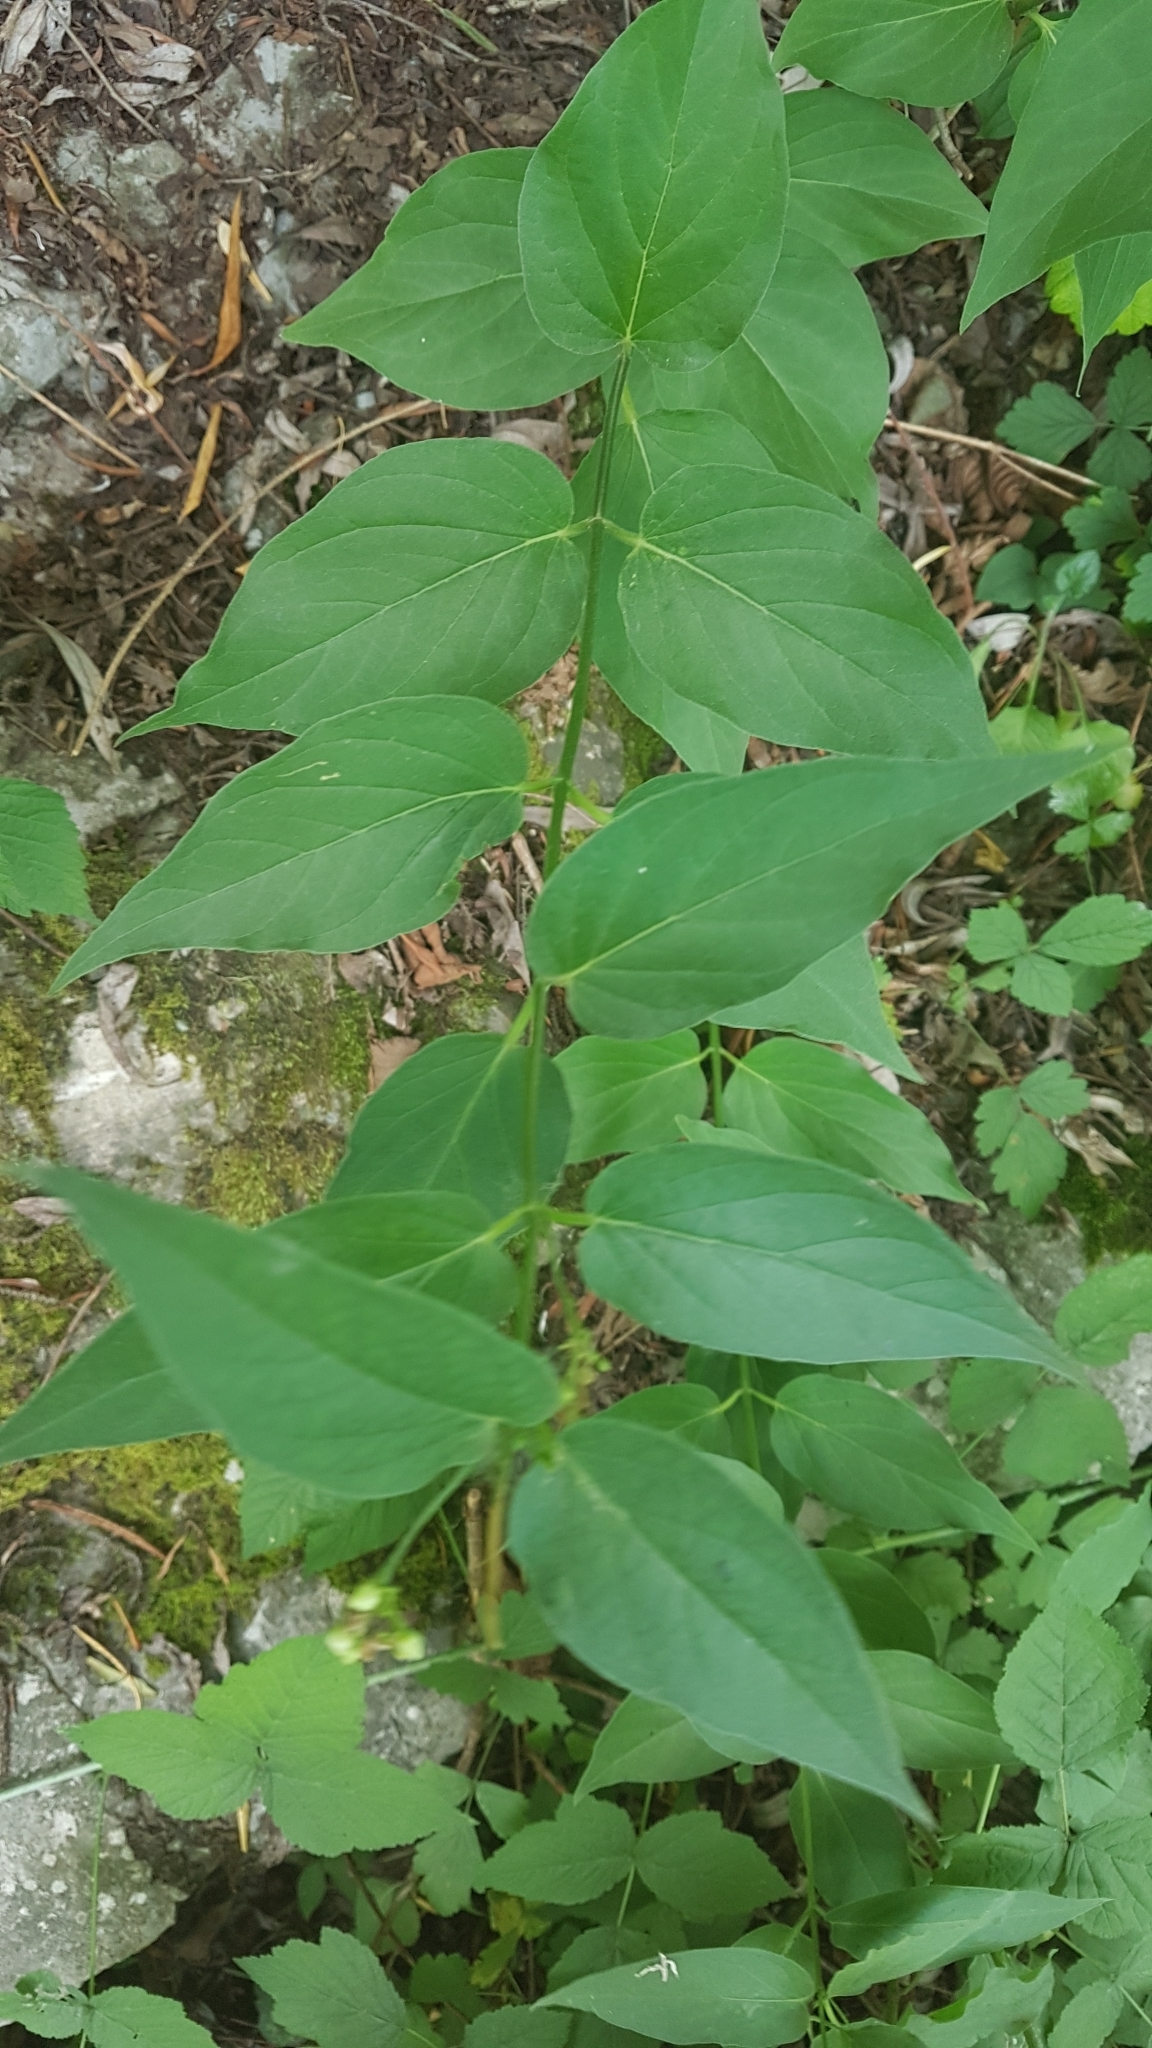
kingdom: Plantae
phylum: Tracheophyta
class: Magnoliopsida
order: Gentianales
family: Apocynaceae
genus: Vincetoxicum
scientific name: Vincetoxicum hirundinaria
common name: White swallowwort
